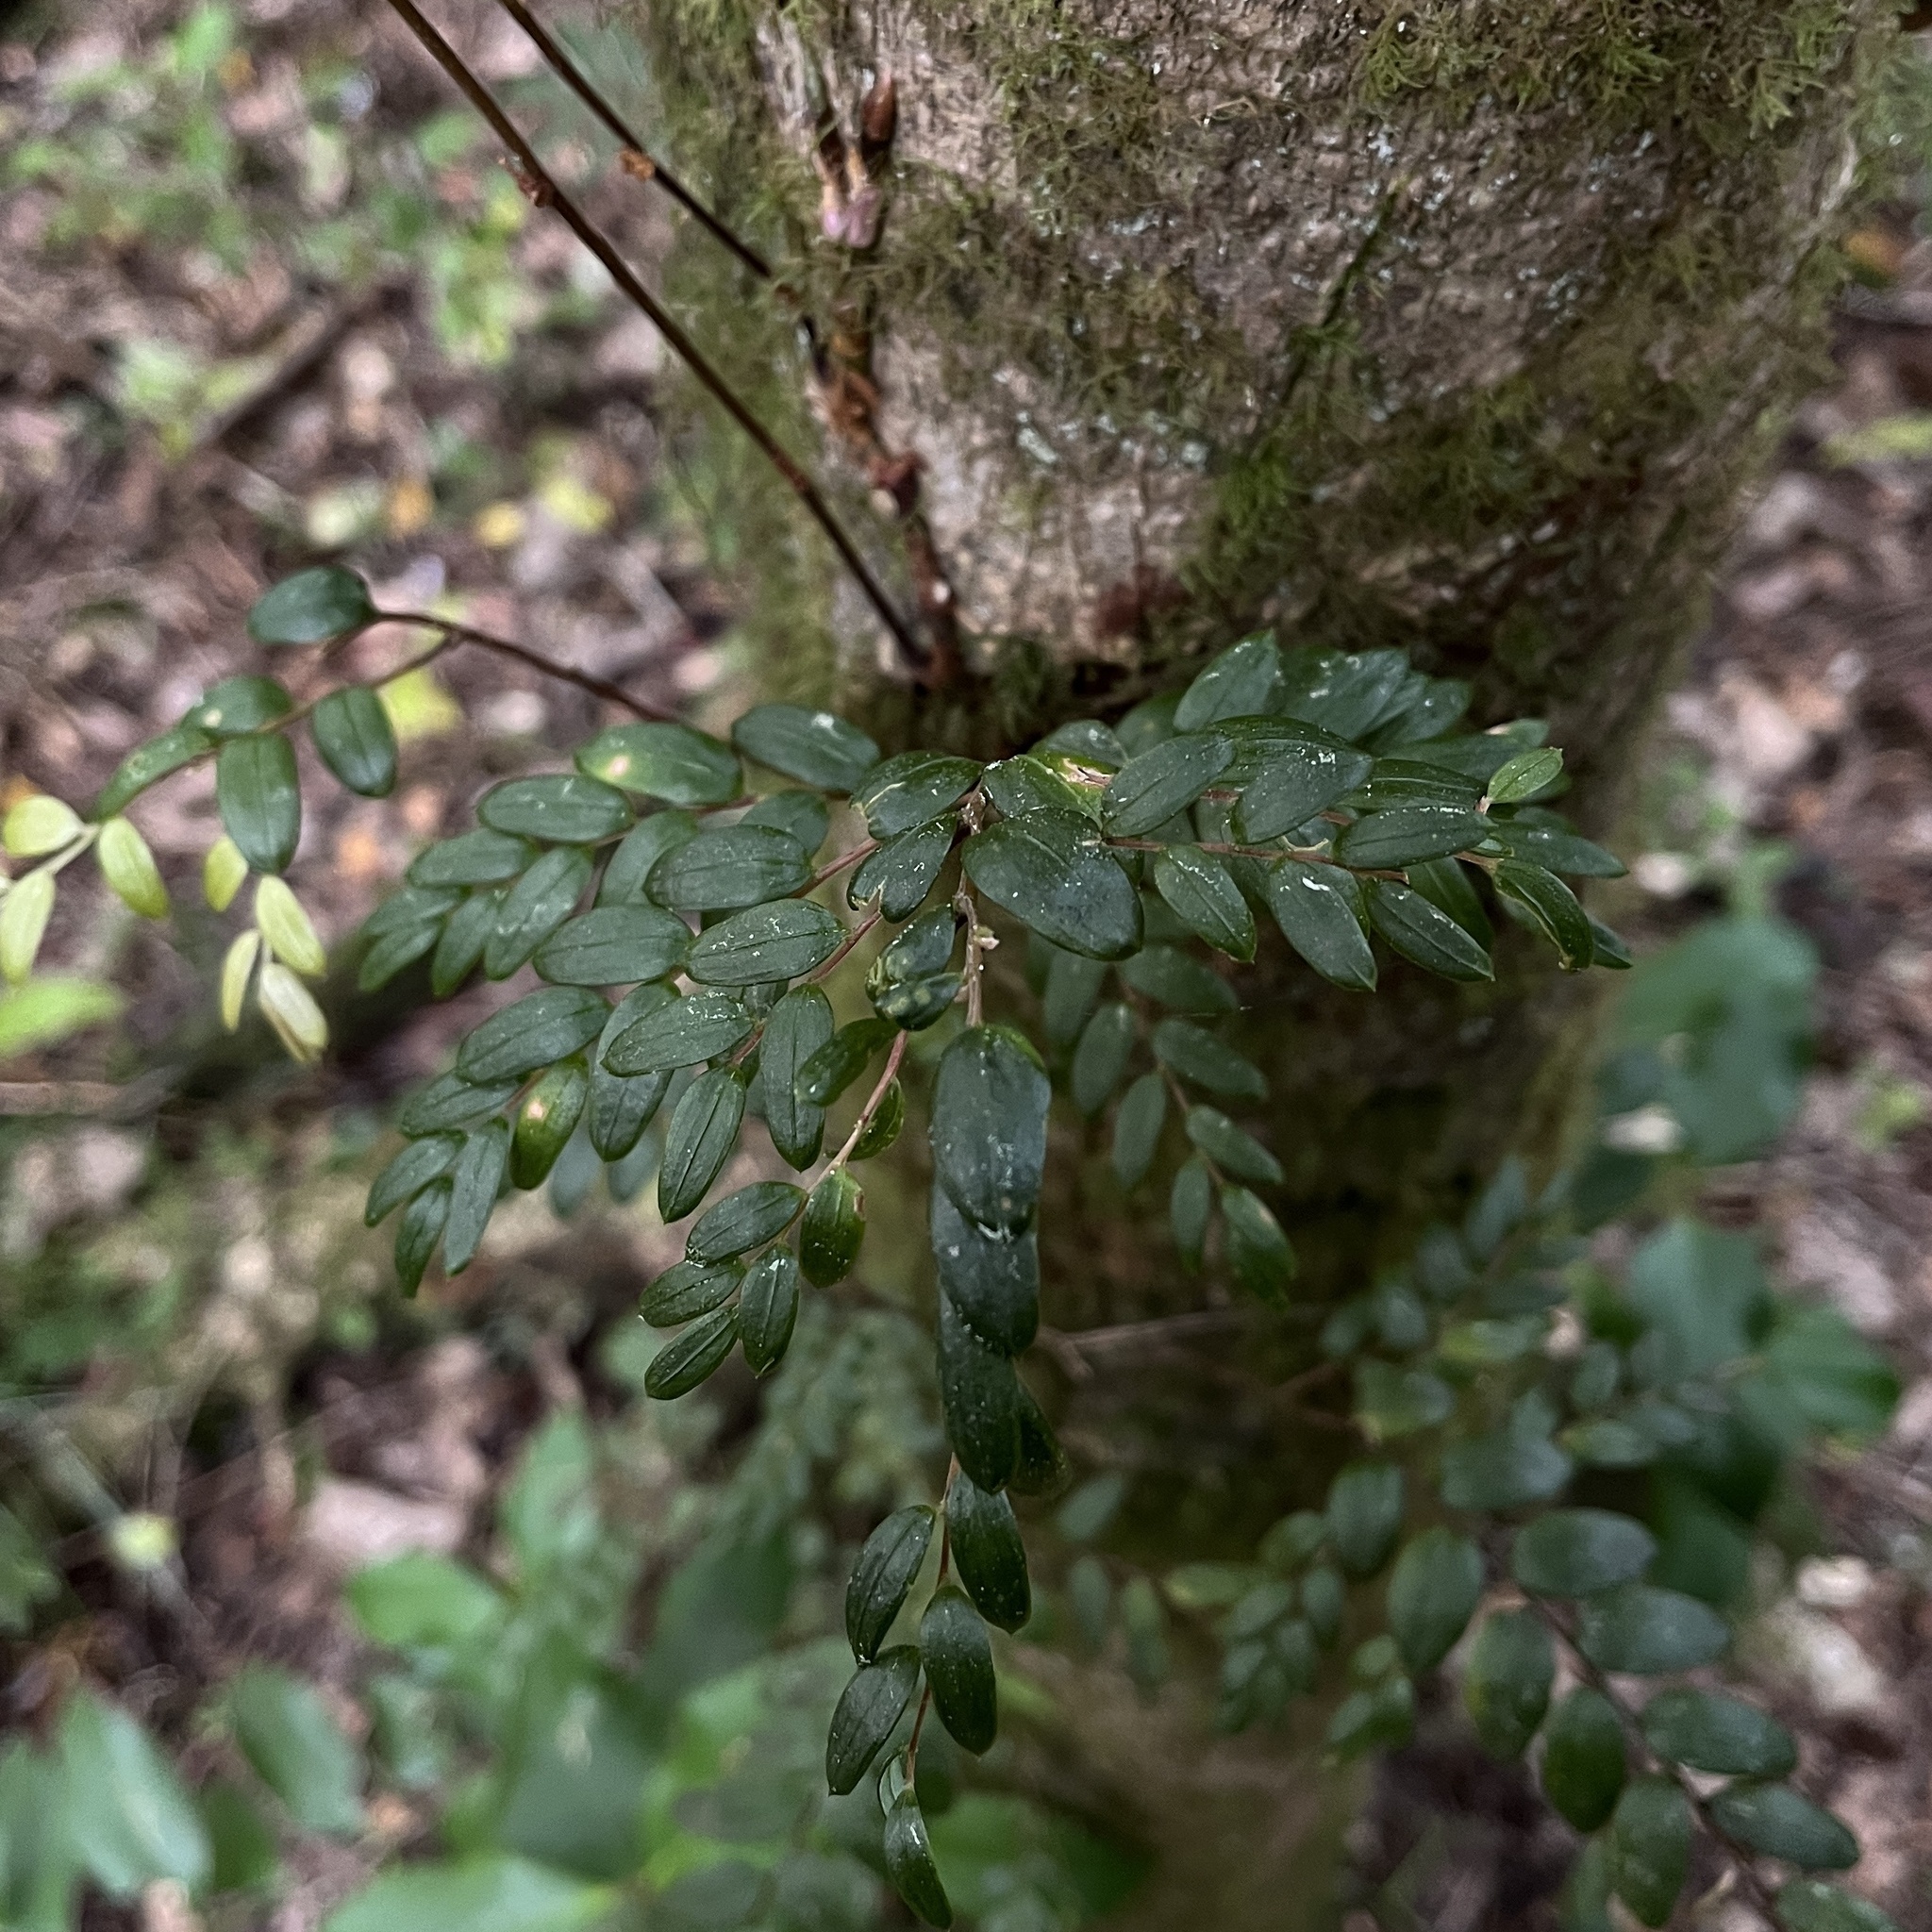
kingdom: Plantae
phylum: Tracheophyta
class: Liliopsida
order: Liliales
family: Alstroemeriaceae
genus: Luzuriaga
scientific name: Luzuriaga polyphylla
